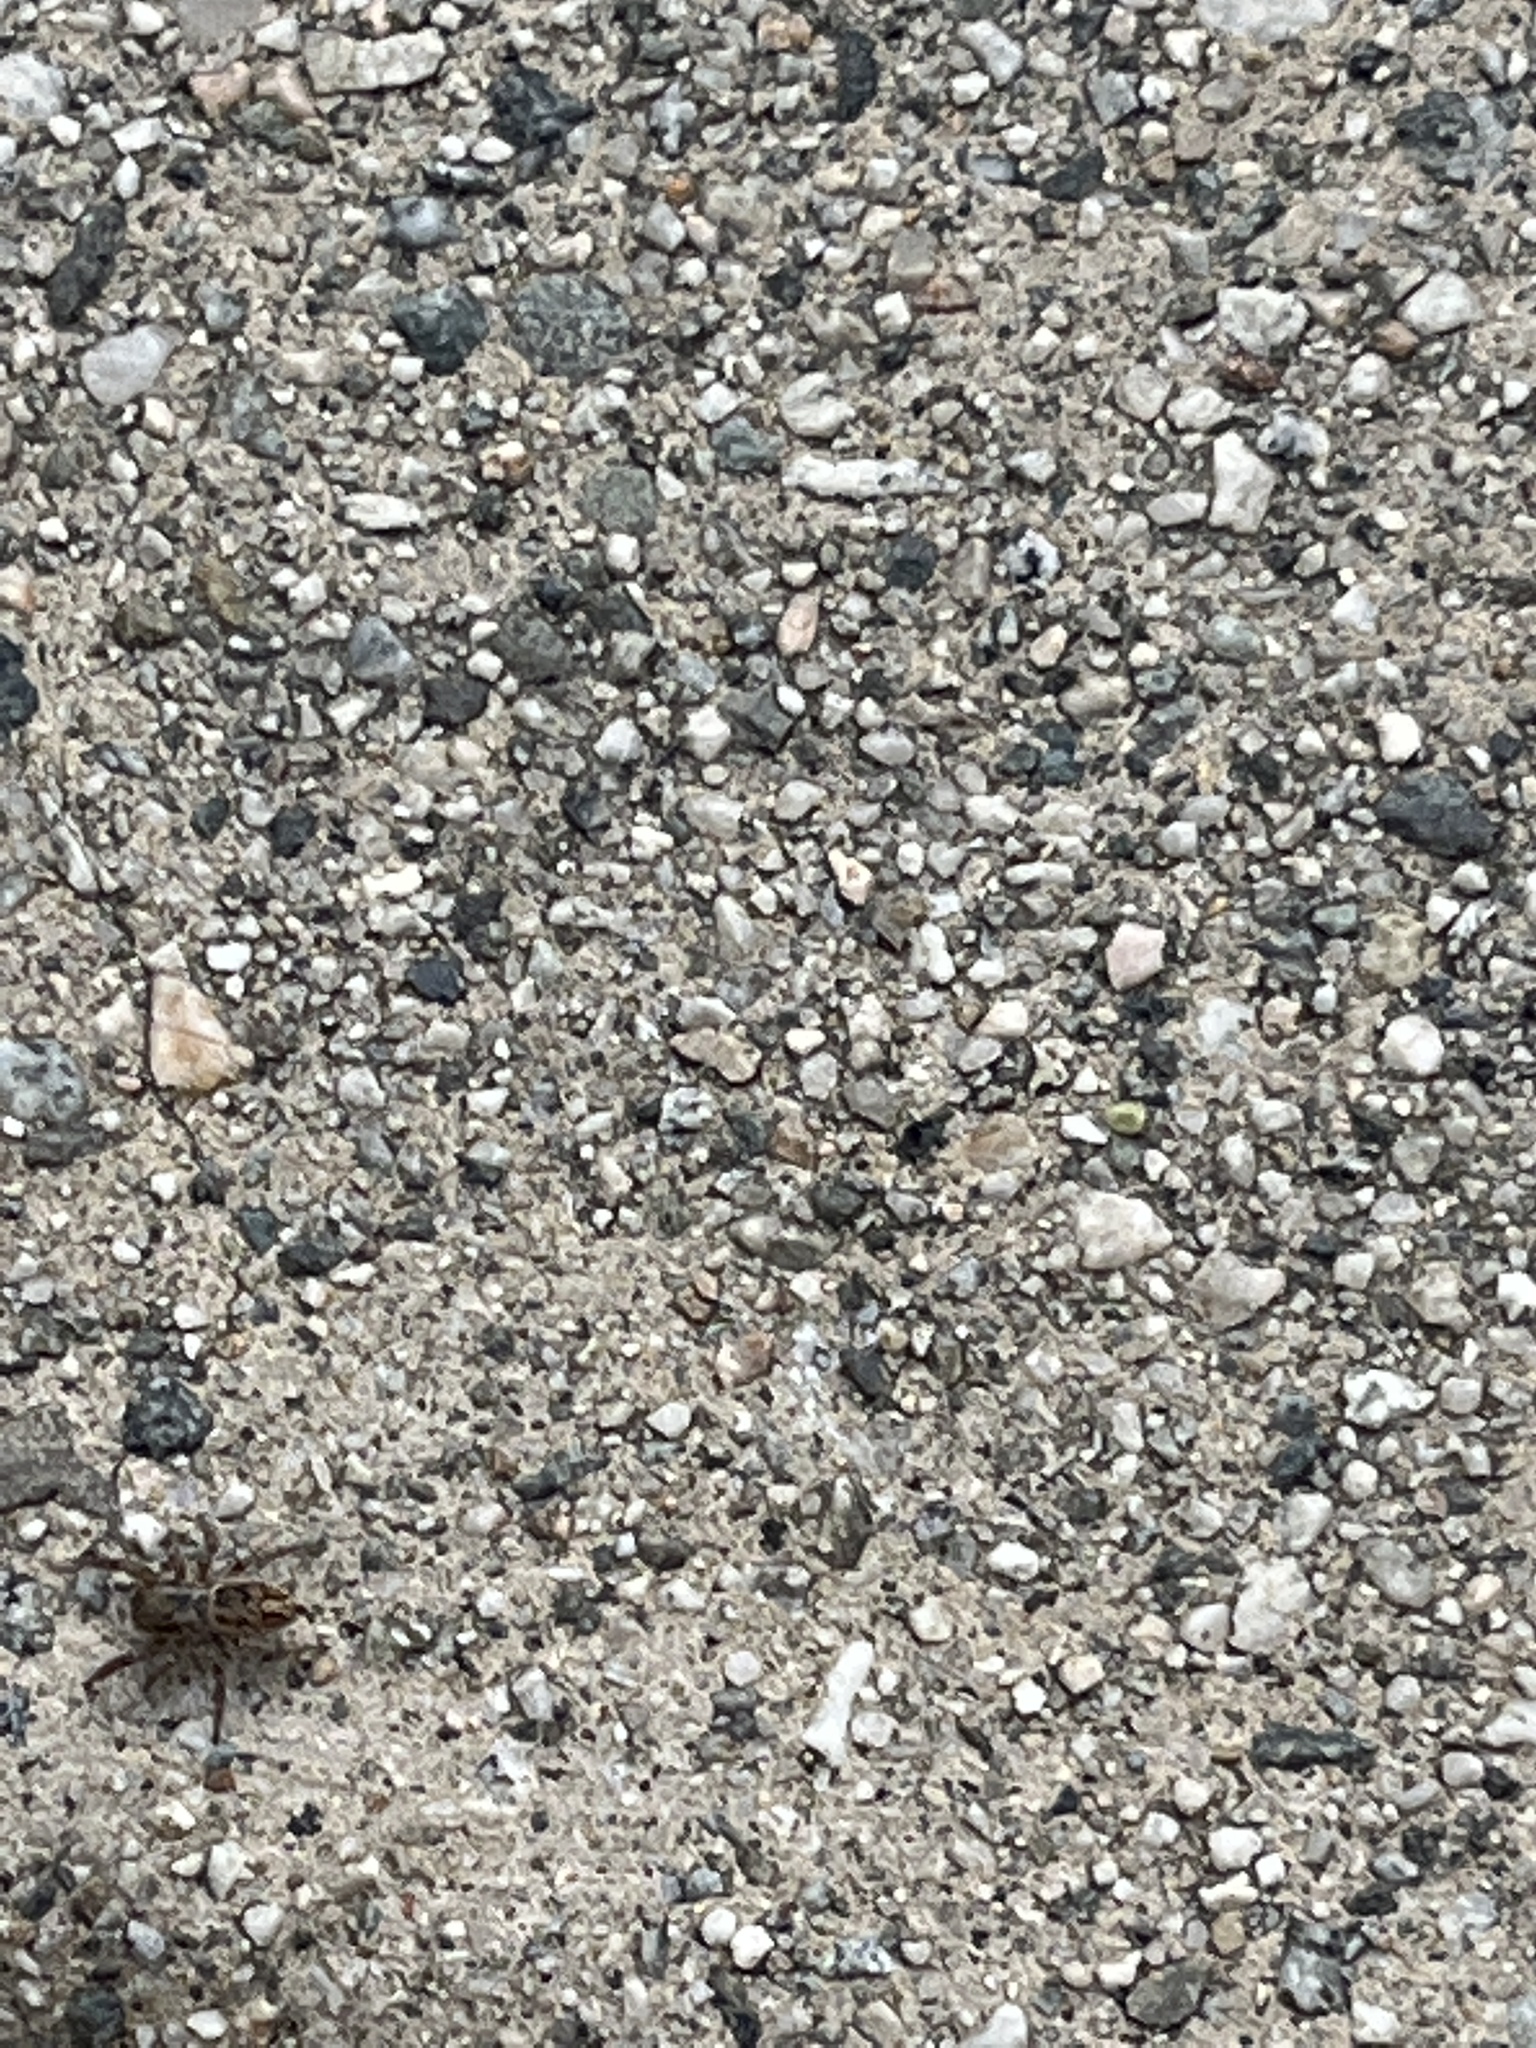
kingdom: Animalia
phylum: Arthropoda
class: Arachnida
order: Araneae
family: Salticidae
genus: Habronattus
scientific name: Habronattus pyrrithrix
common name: Jumping spider
